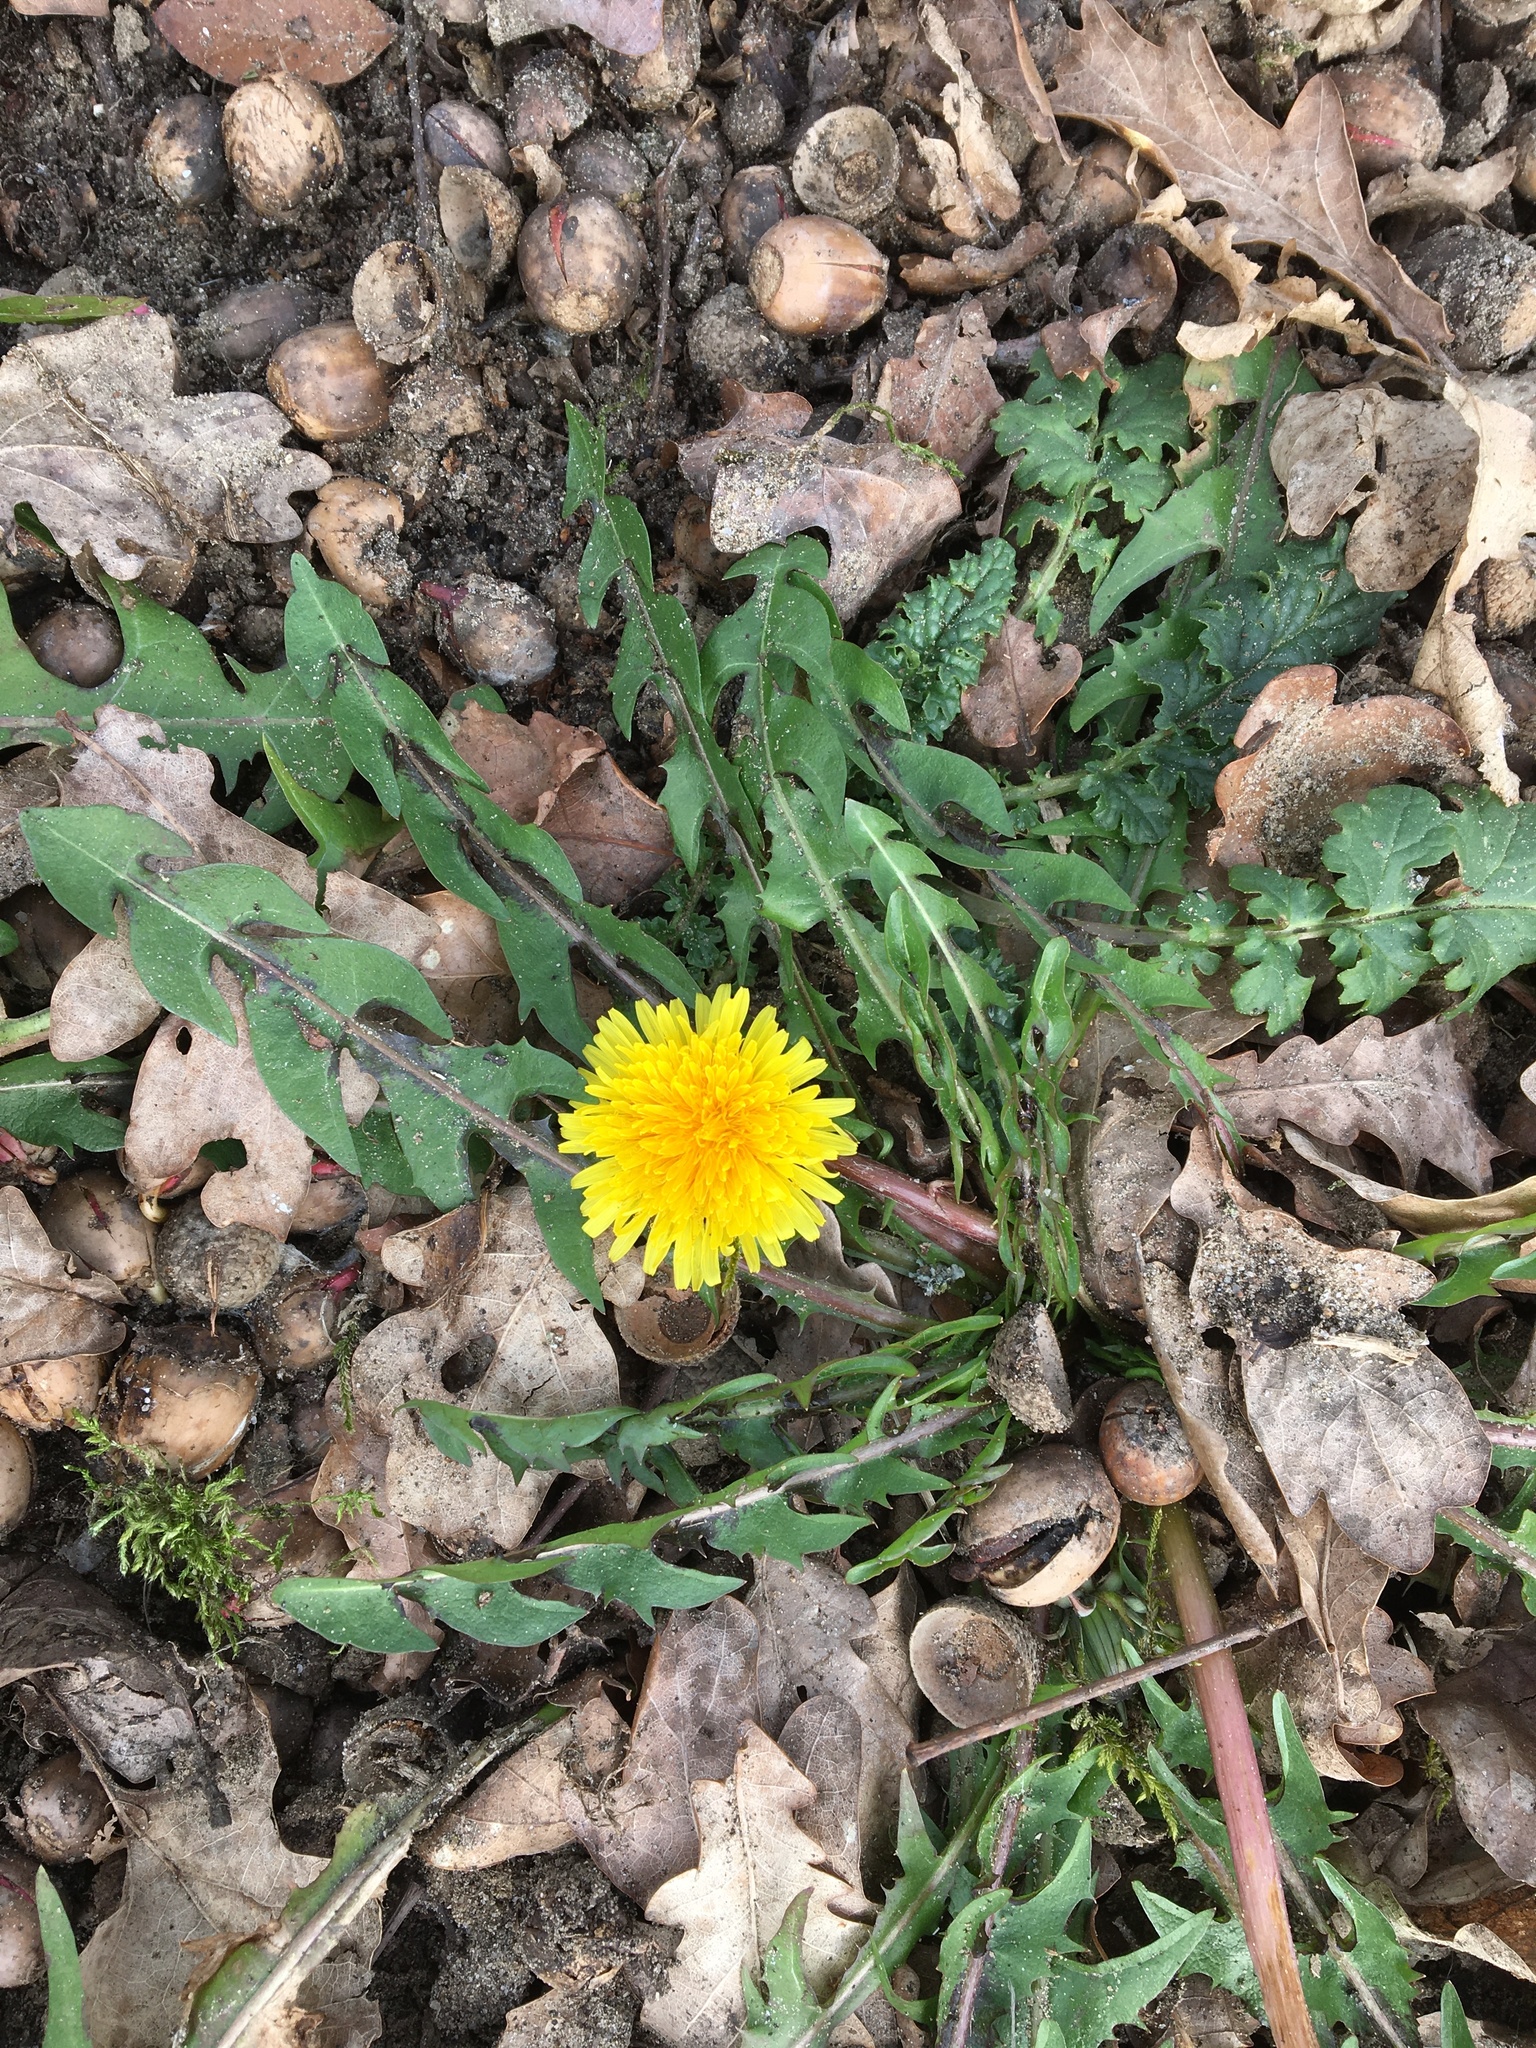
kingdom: Plantae
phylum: Tracheophyta
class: Magnoliopsida
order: Asterales
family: Asteraceae
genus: Taraxacum
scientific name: Taraxacum officinale
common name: Common dandelion
